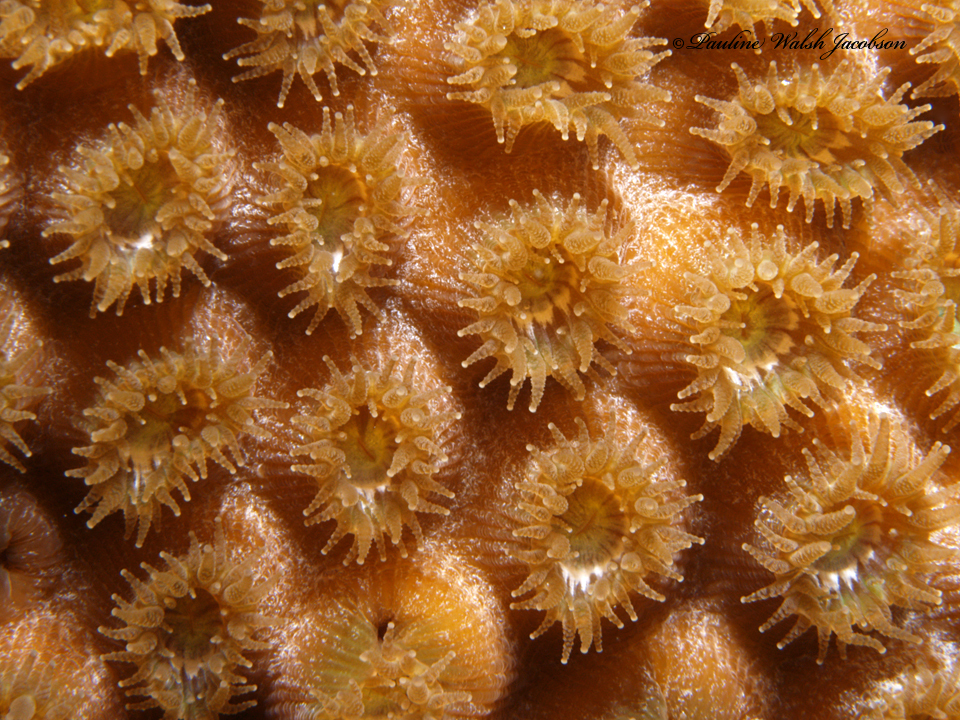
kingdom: Animalia
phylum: Cnidaria
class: Anthozoa
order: Scleractinia
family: Montastraeidae
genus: Montastraea
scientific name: Montastraea cavernosa
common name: Great star coral
